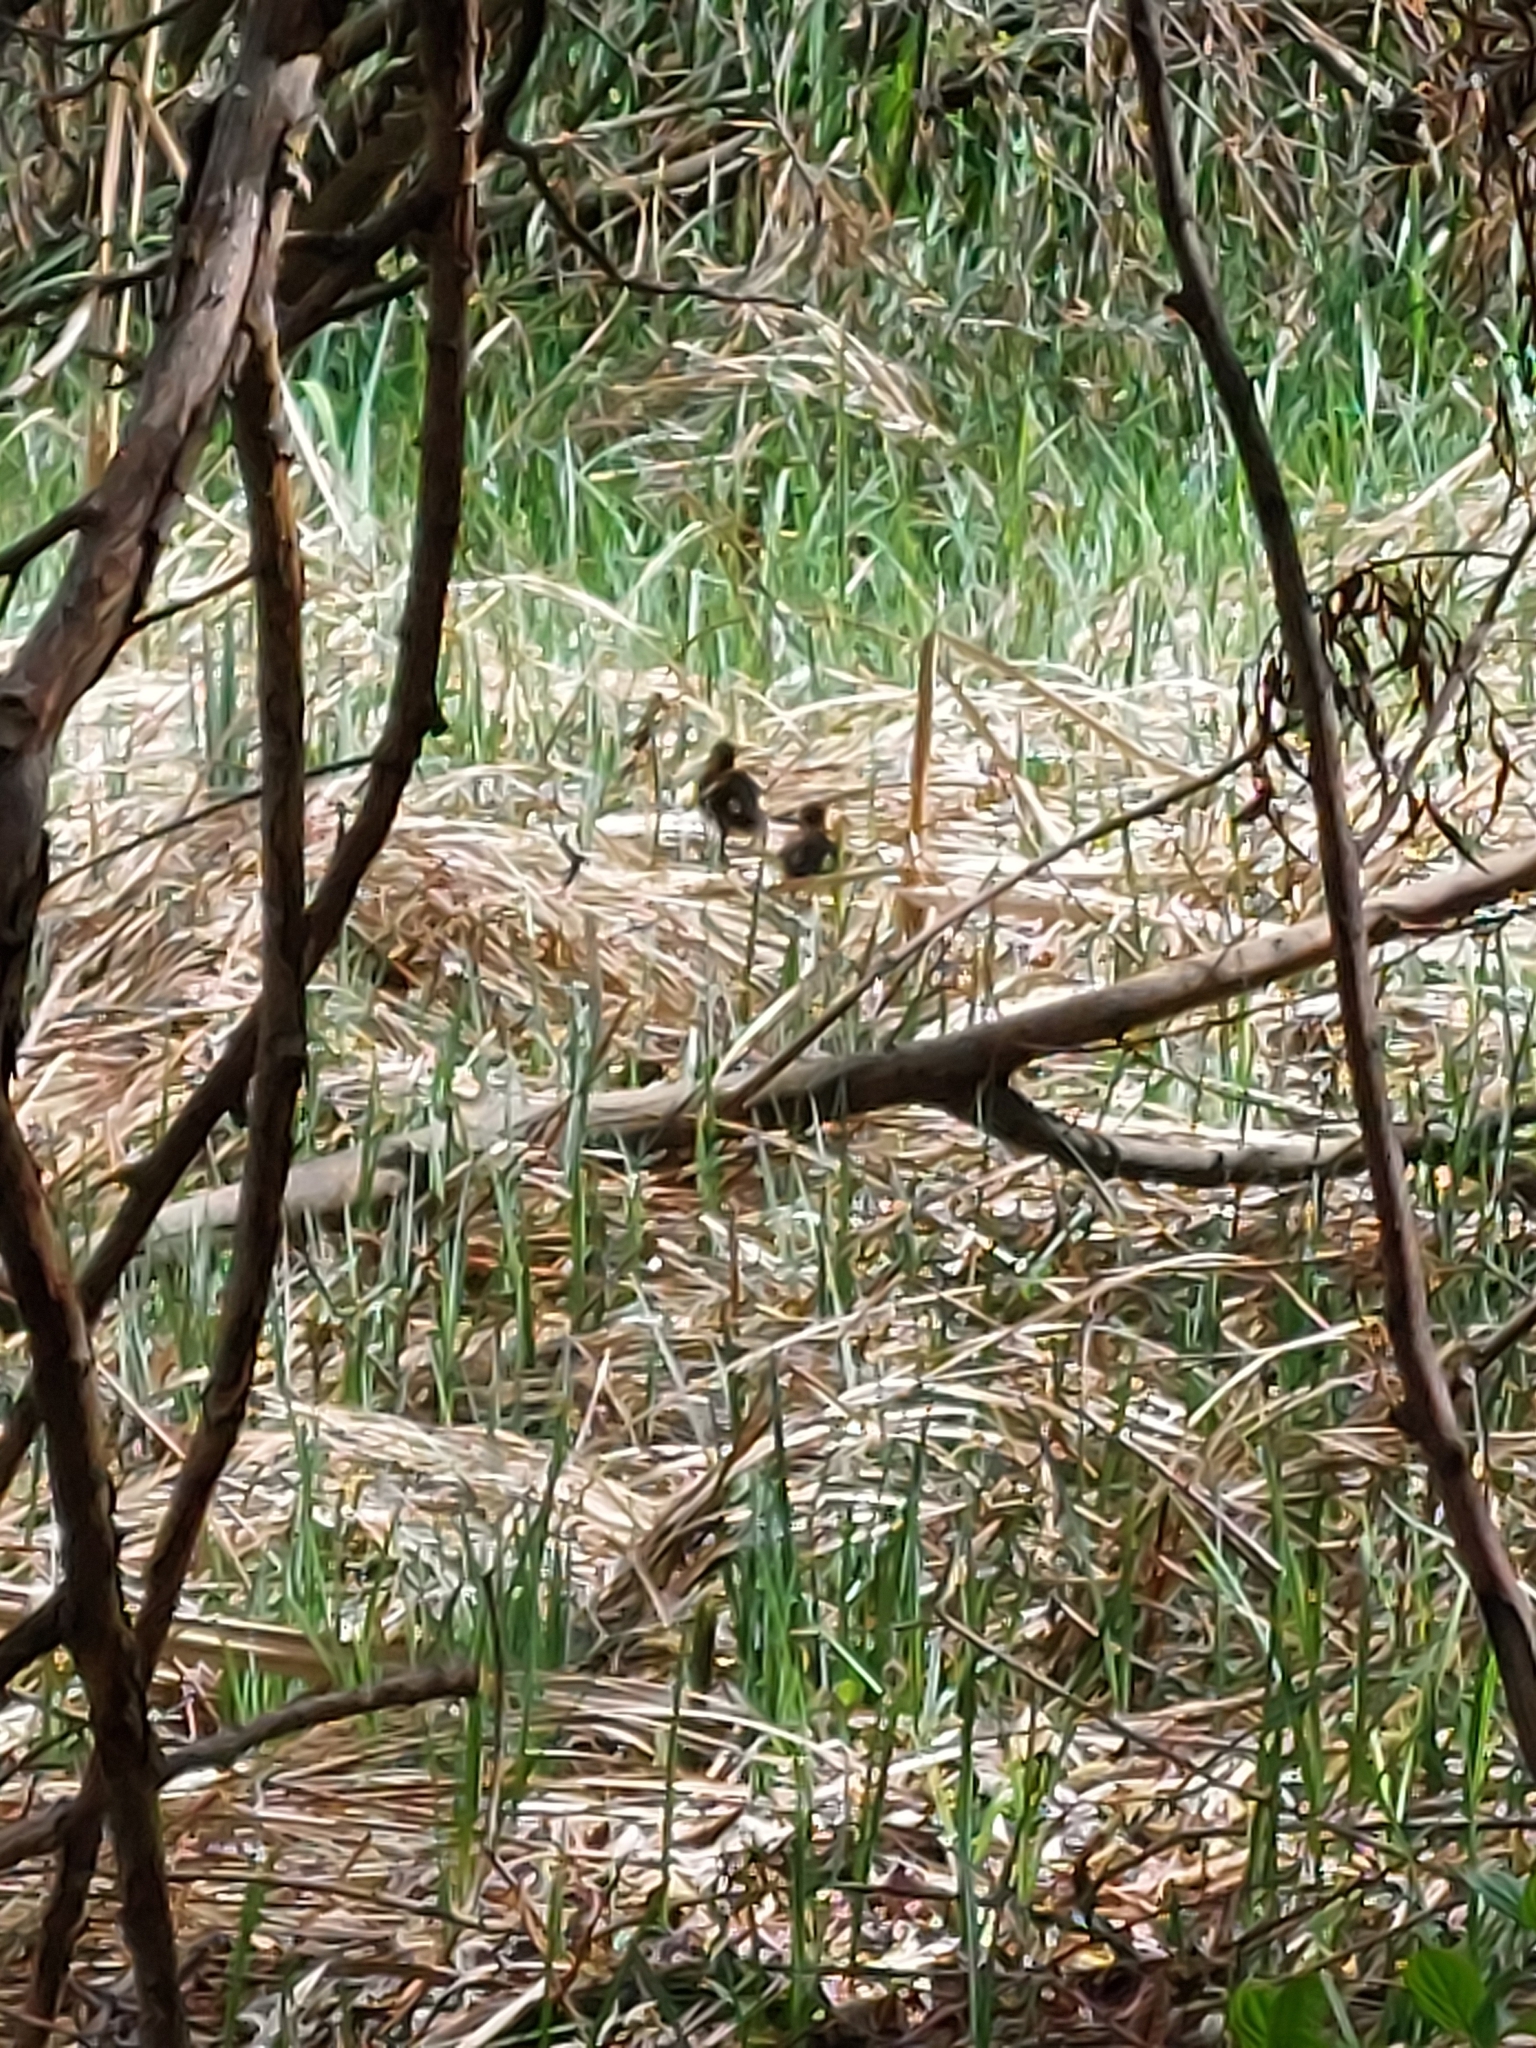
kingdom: Animalia
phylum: Chordata
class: Aves
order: Anseriformes
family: Anatidae
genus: Anas
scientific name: Anas platyrhynchos
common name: Mallard
